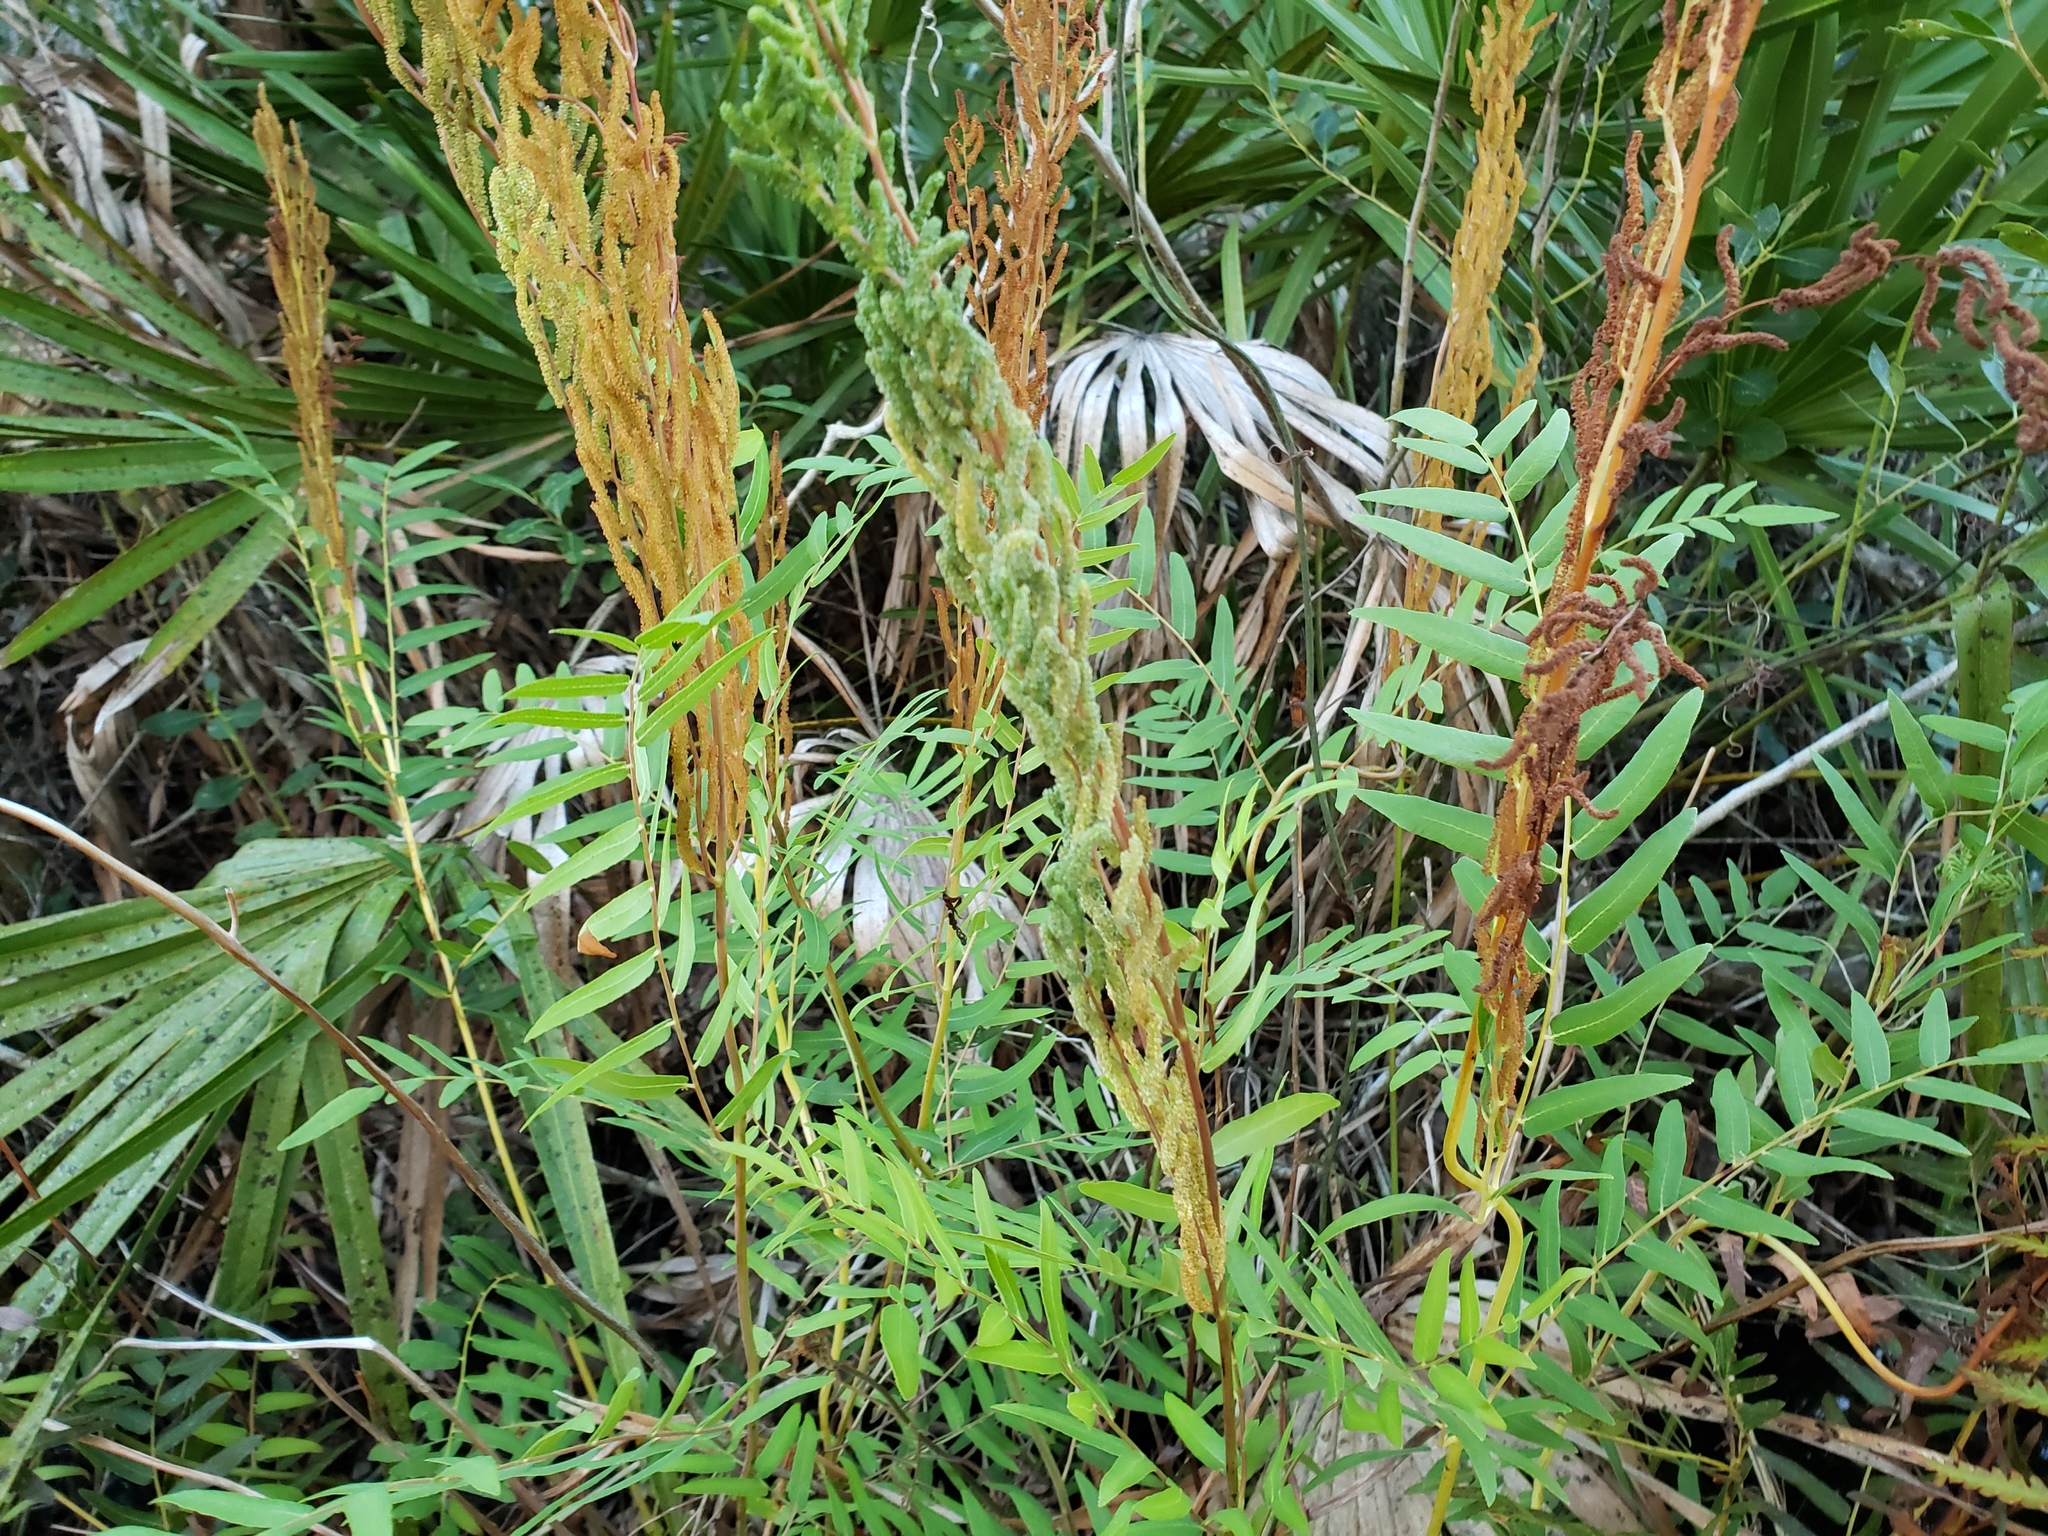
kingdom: Plantae
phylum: Tracheophyta
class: Polypodiopsida
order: Osmundales
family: Osmundaceae
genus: Osmunda
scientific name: Osmunda spectabilis
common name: American royal fern
